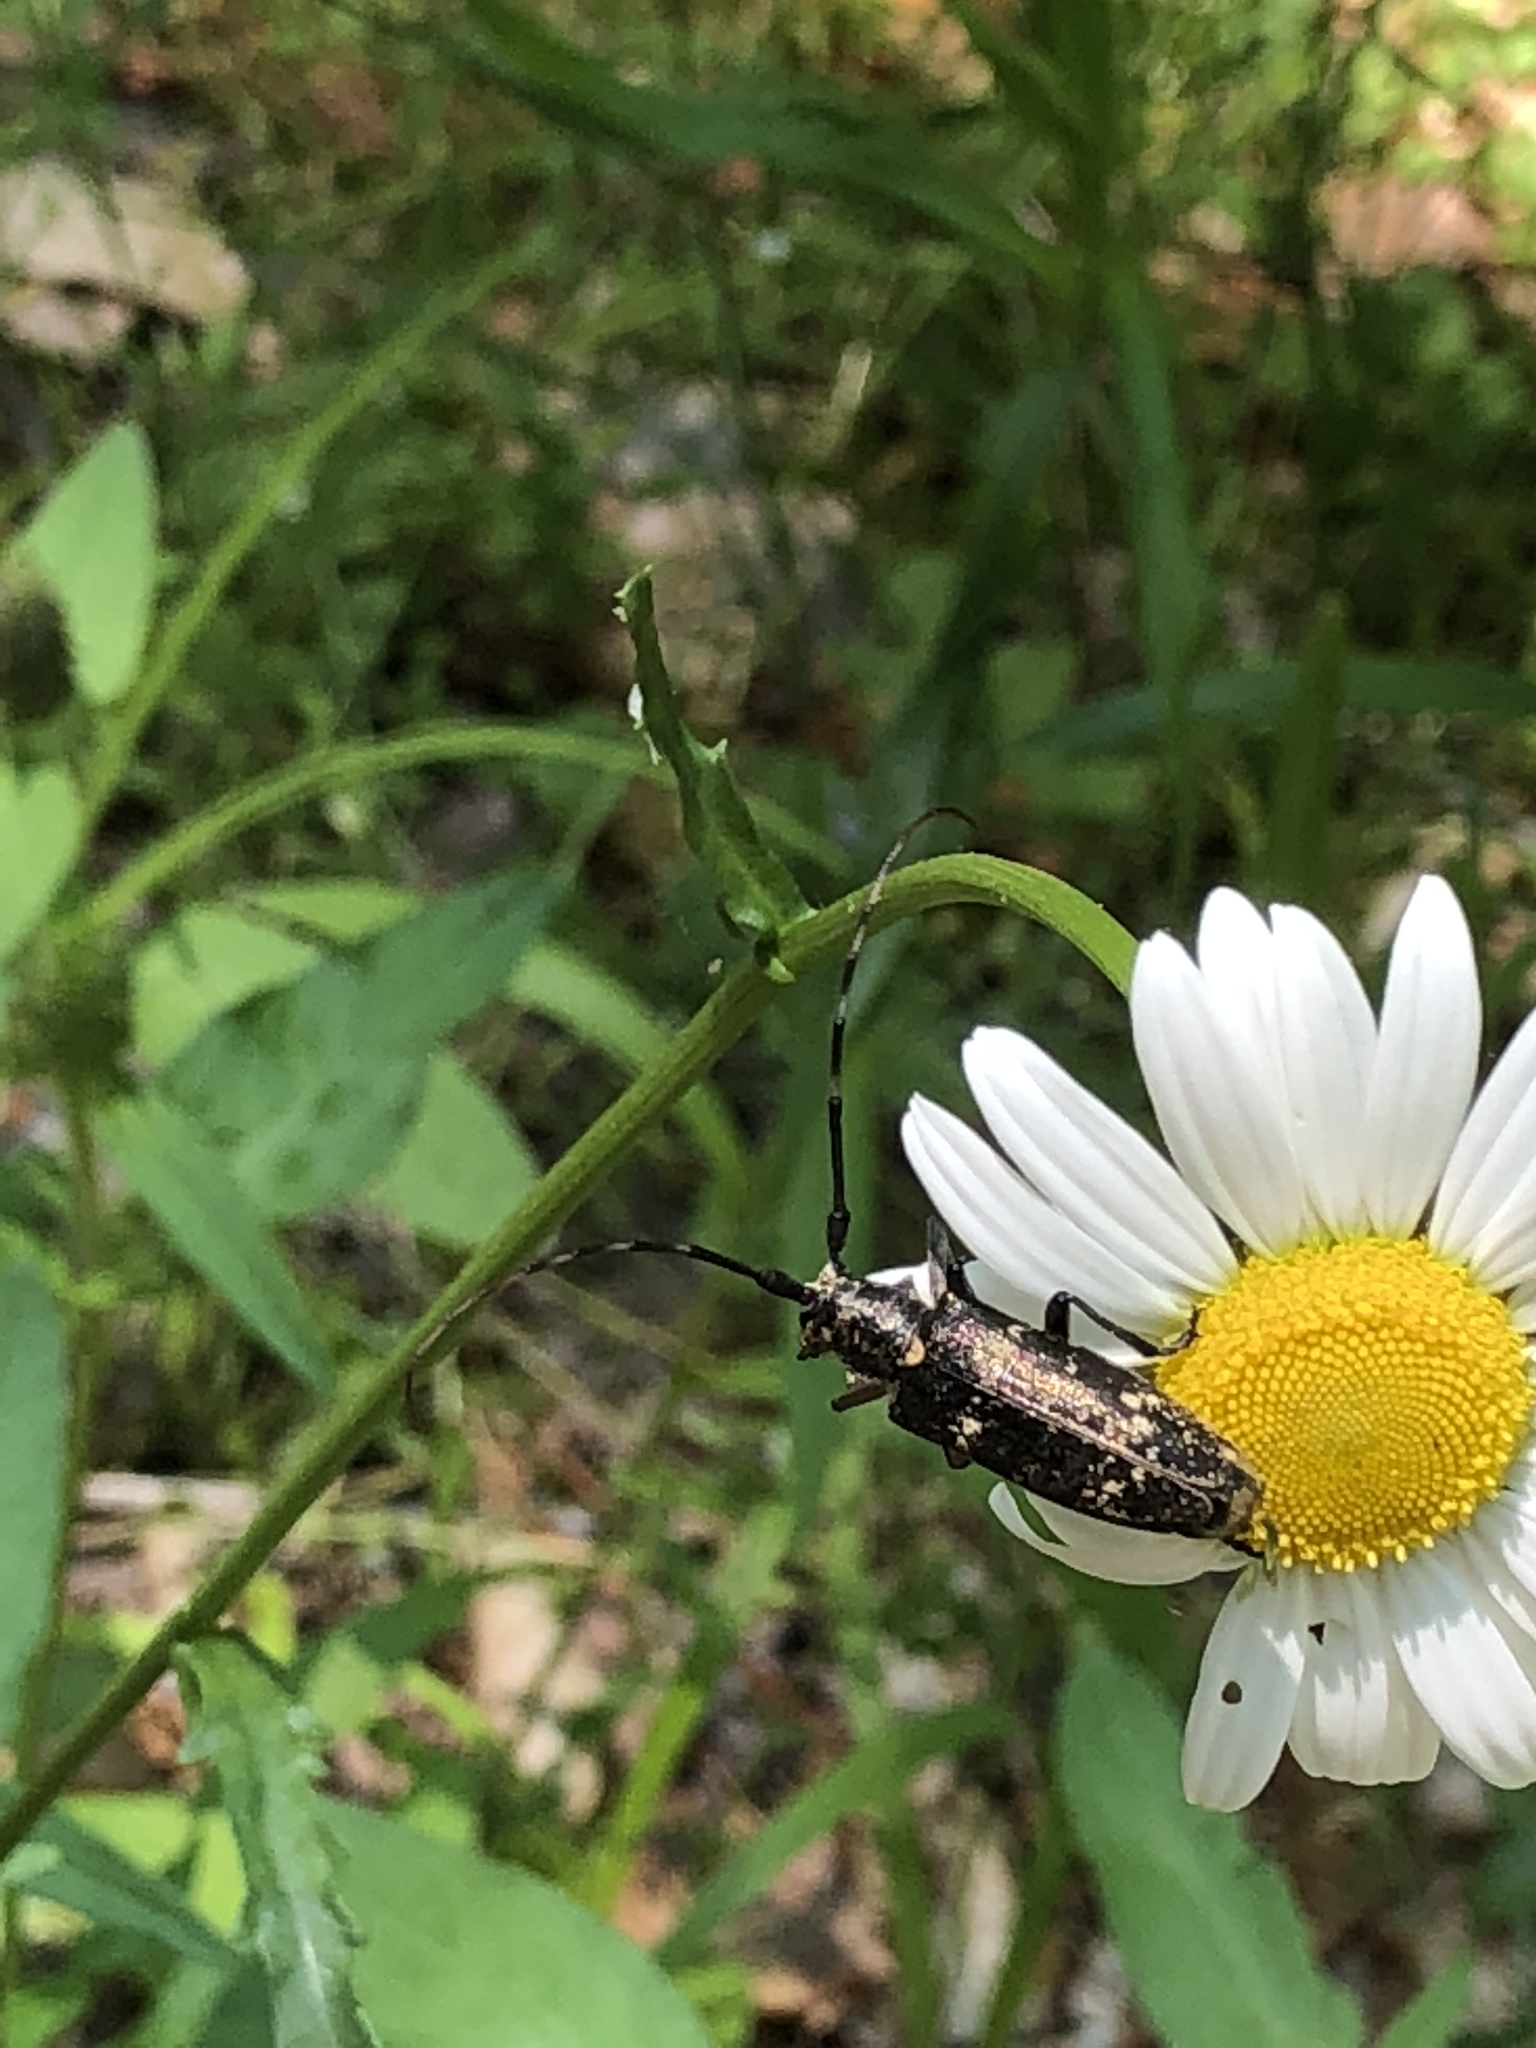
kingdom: Animalia
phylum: Arthropoda
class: Insecta
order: Coleoptera
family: Cerambycidae
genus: Monochamus
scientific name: Monochamus scutellatus
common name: White-spotted sawyer beetle
